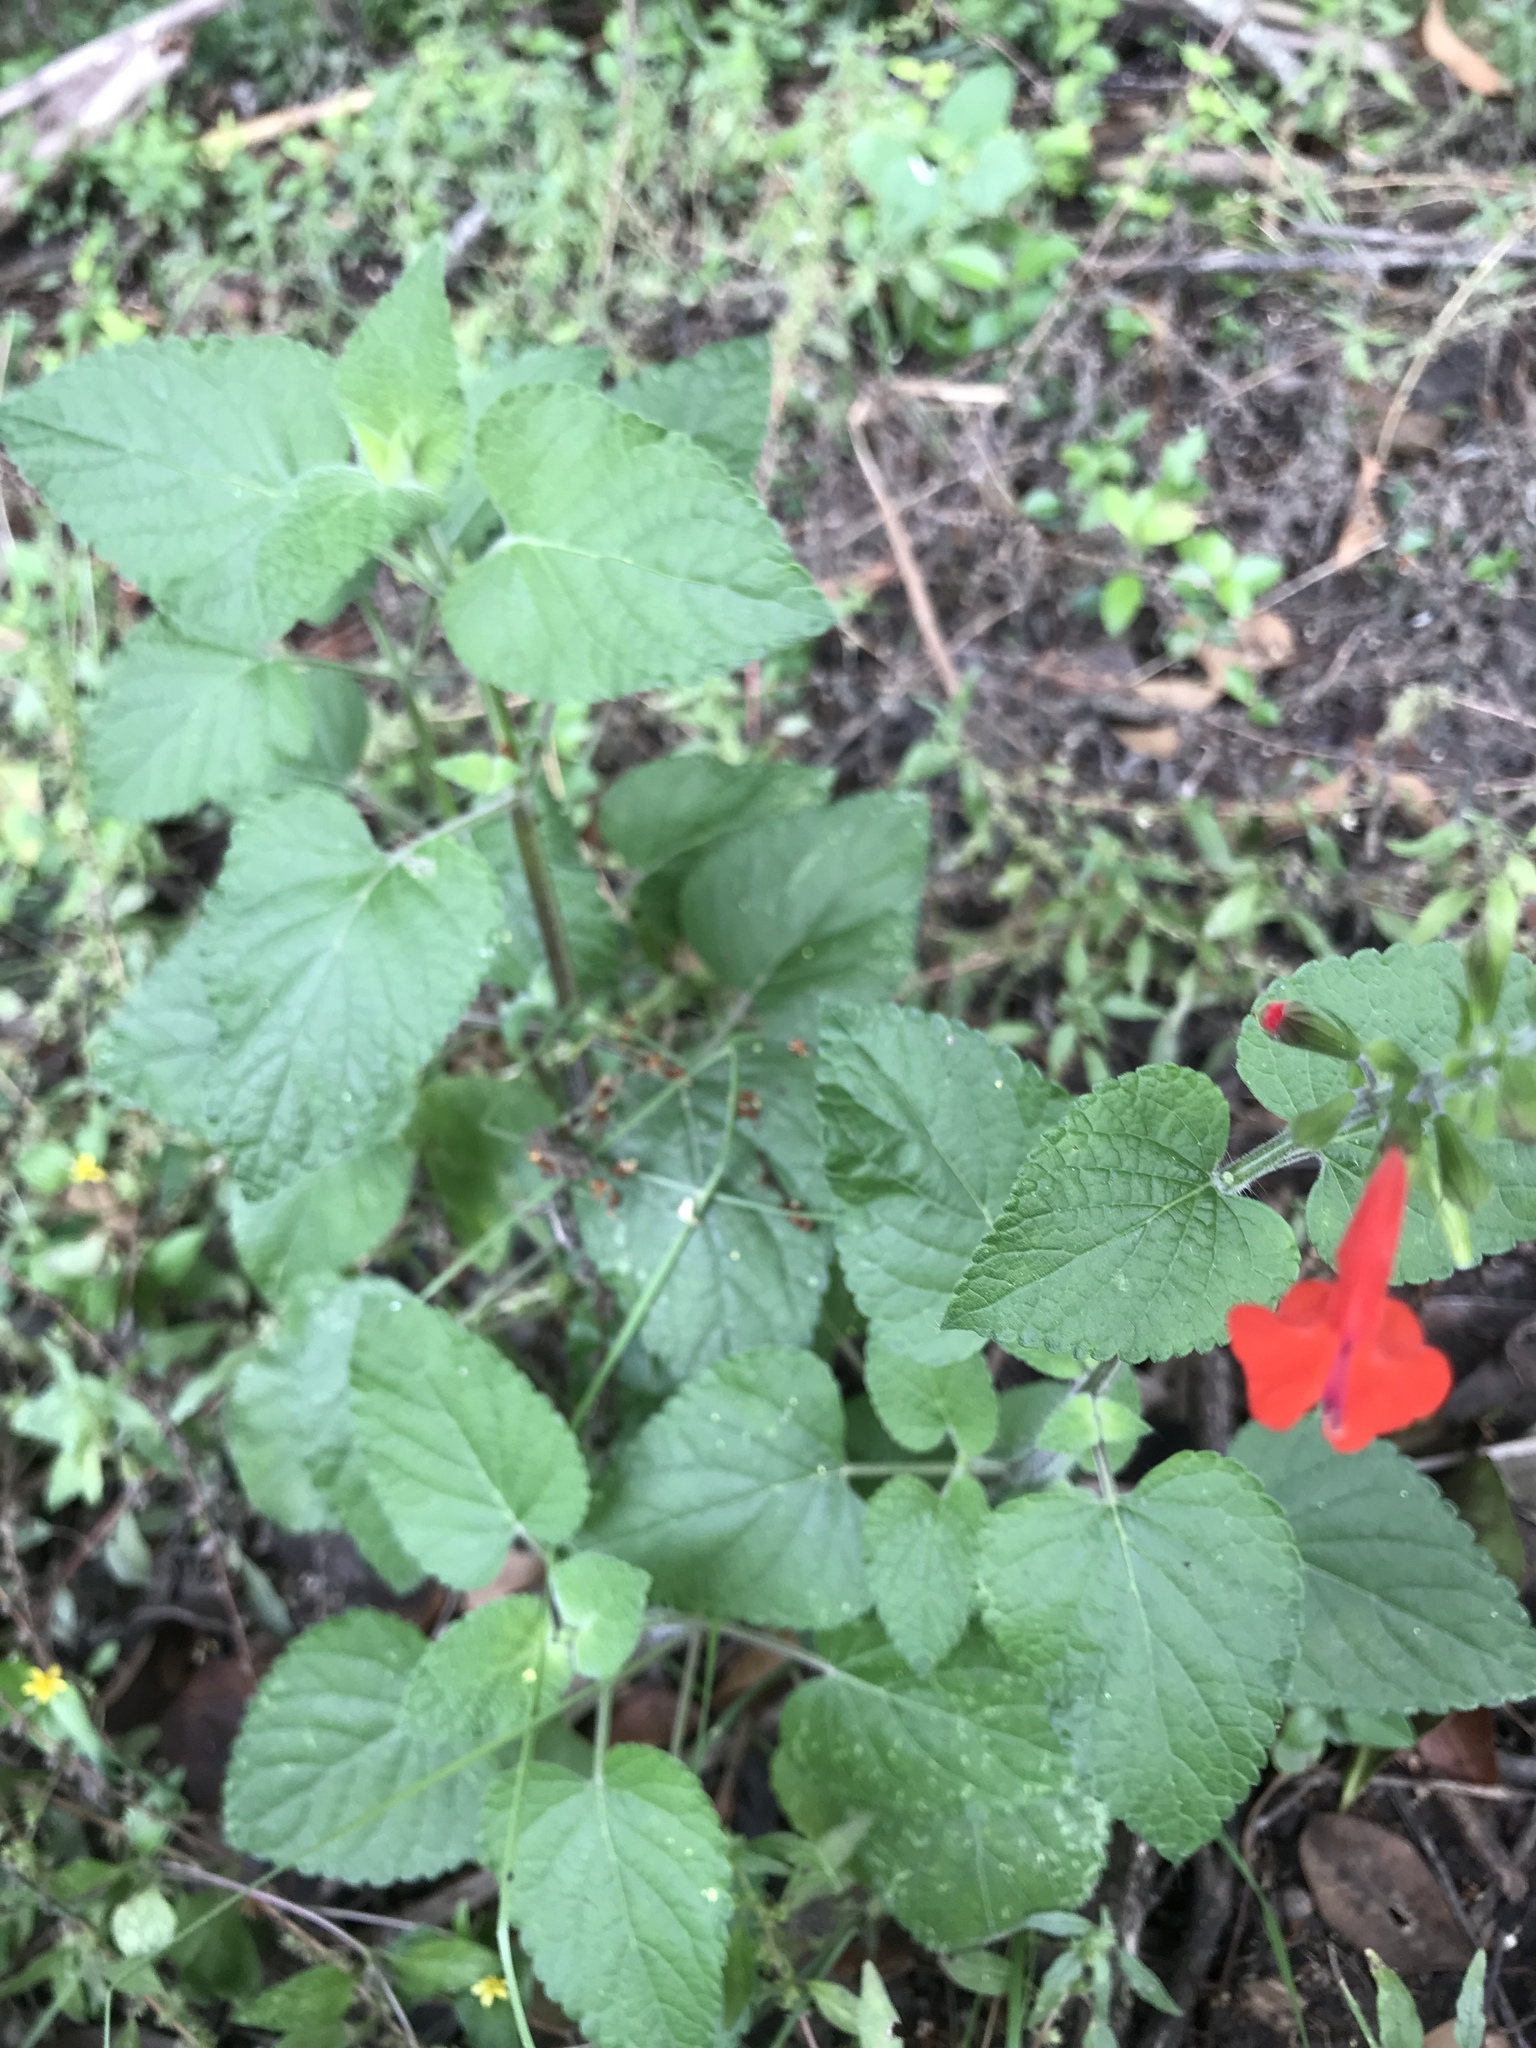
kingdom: Plantae
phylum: Tracheophyta
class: Magnoliopsida
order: Lamiales
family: Lamiaceae
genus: Salvia
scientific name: Salvia coccinea
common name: Blood sage
